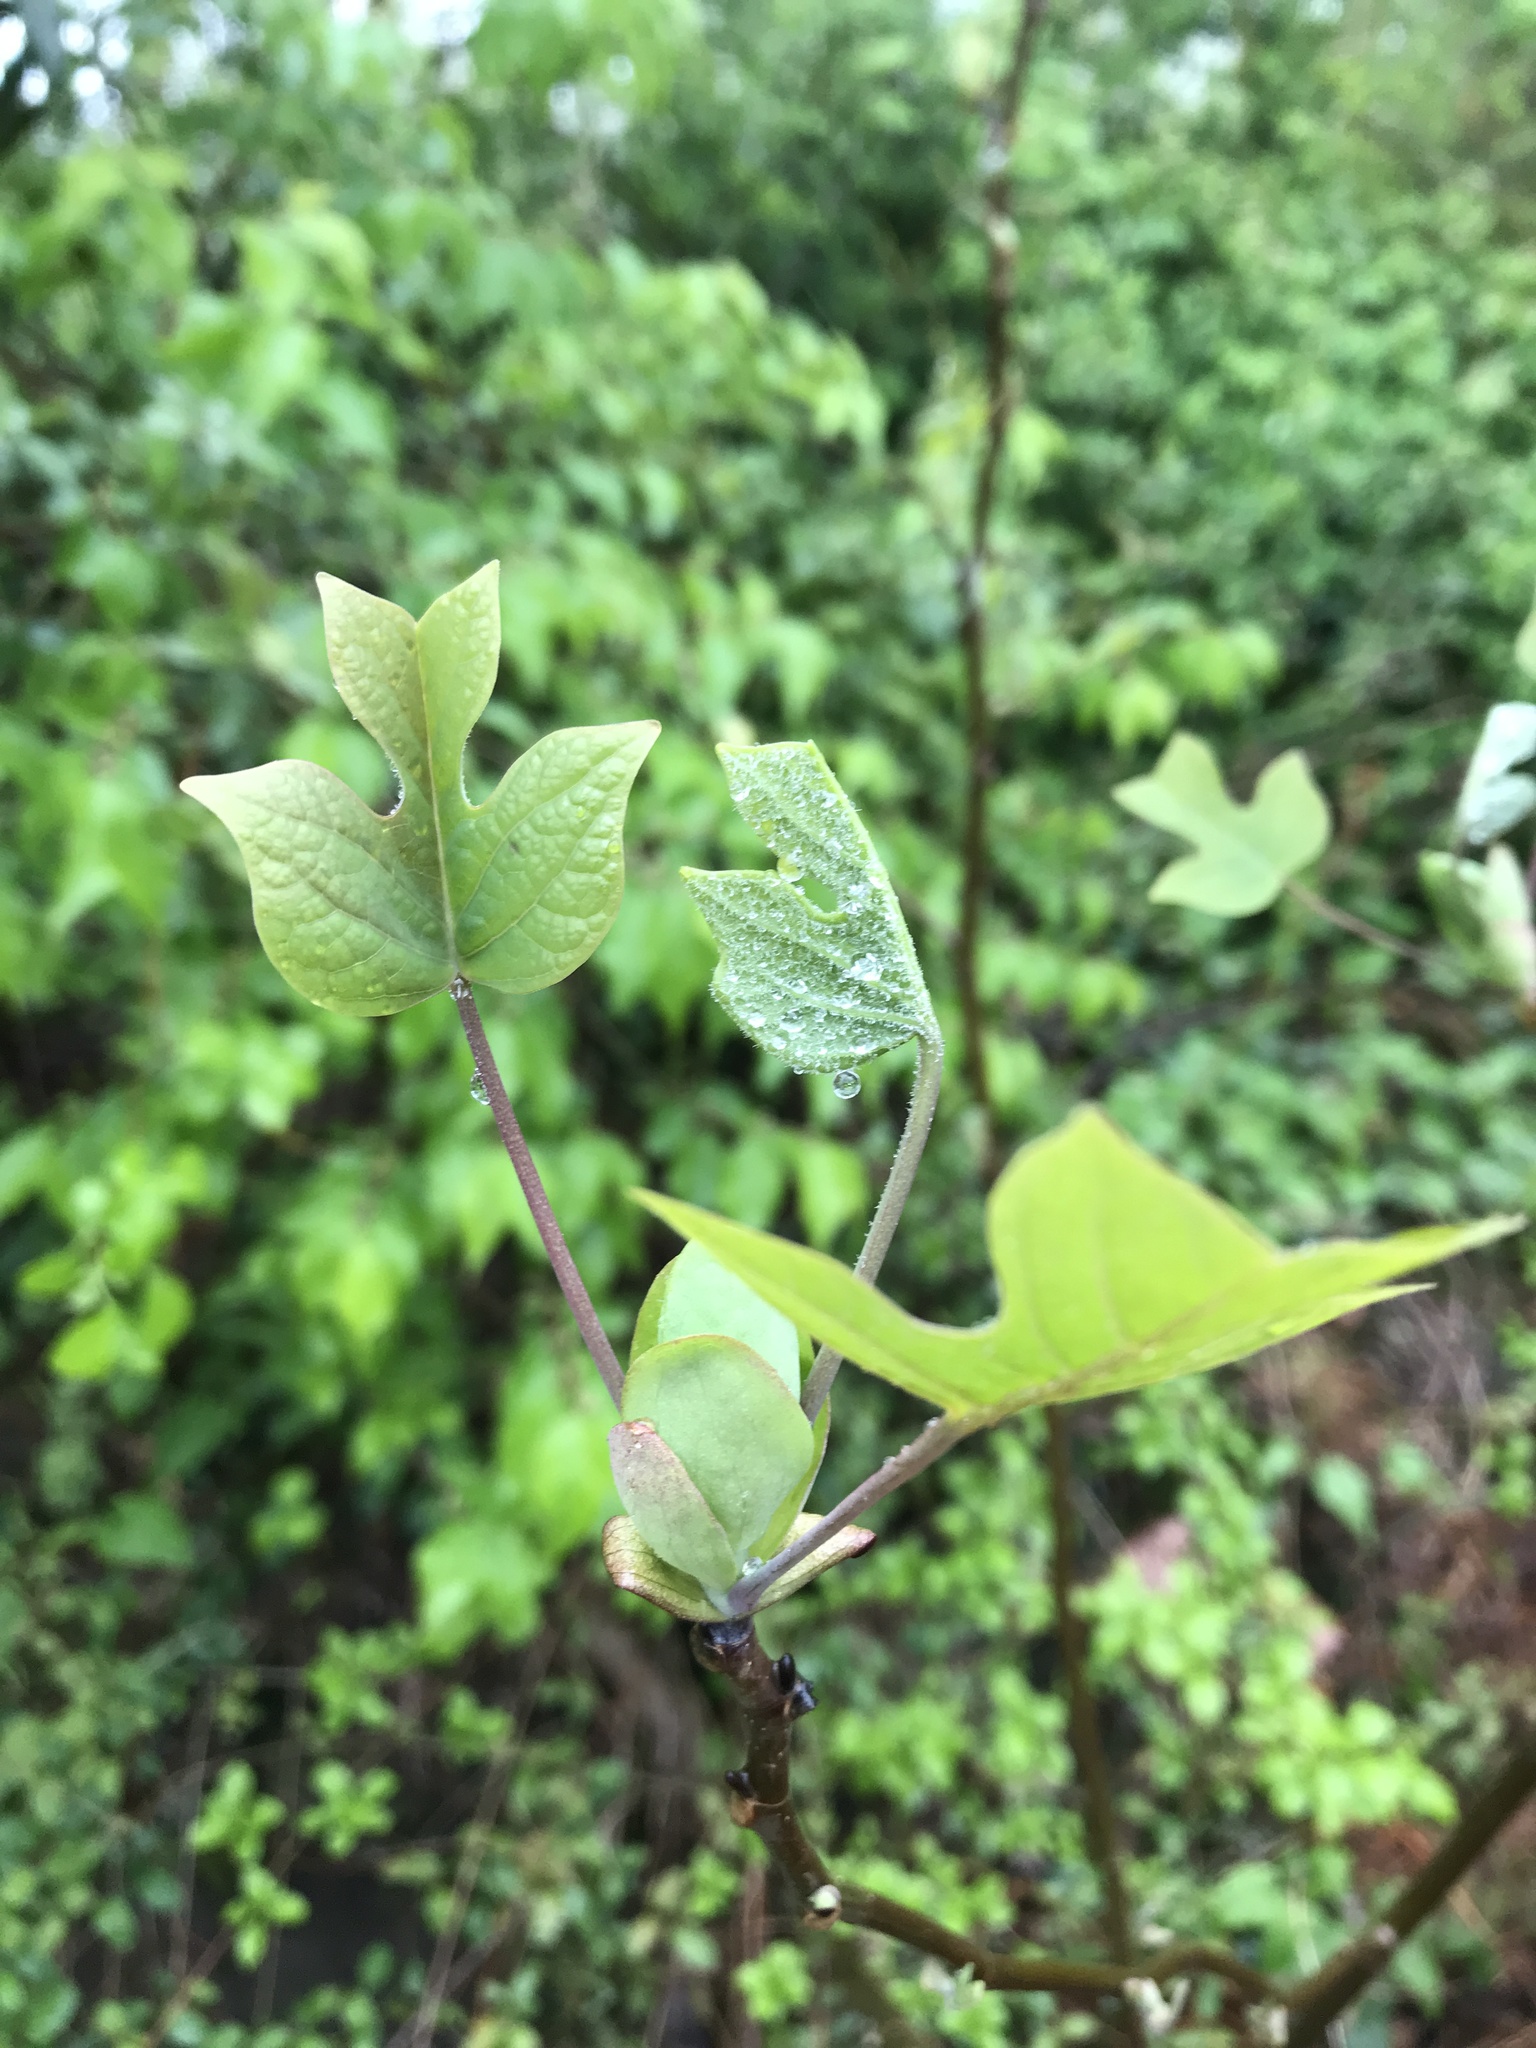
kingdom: Plantae
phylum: Tracheophyta
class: Magnoliopsida
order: Magnoliales
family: Magnoliaceae
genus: Liriodendron
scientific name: Liriodendron tulipifera
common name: Tulip tree
